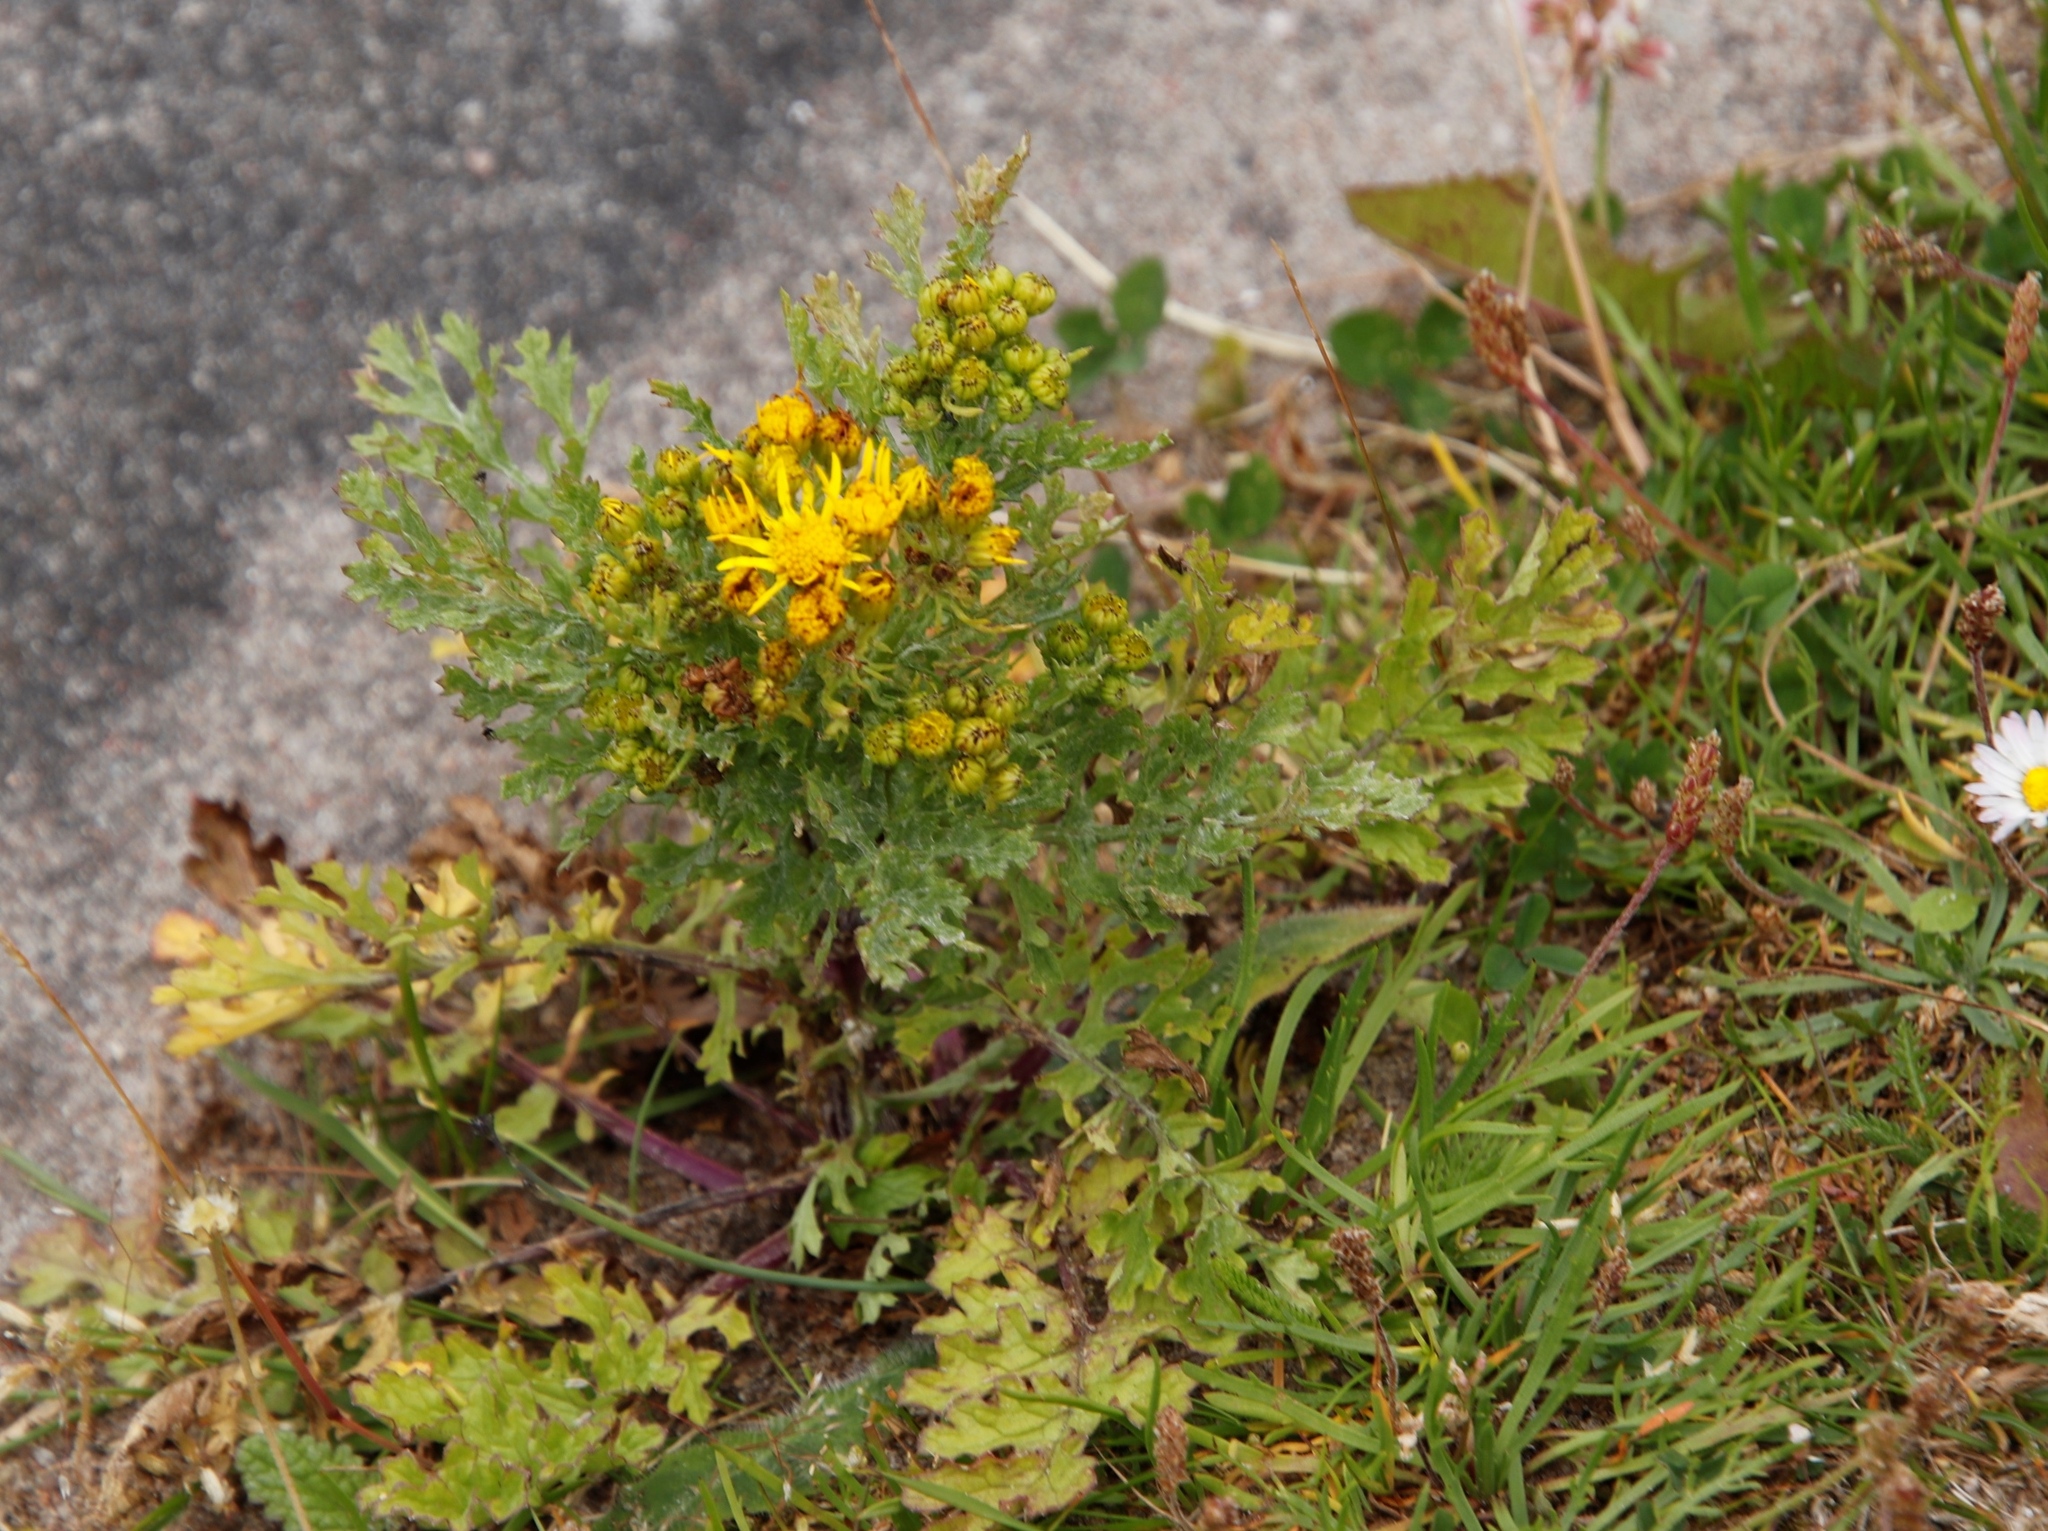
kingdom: Plantae
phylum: Tracheophyta
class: Magnoliopsida
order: Asterales
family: Asteraceae
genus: Jacobaea
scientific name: Jacobaea vulgaris
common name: Stinking willie
